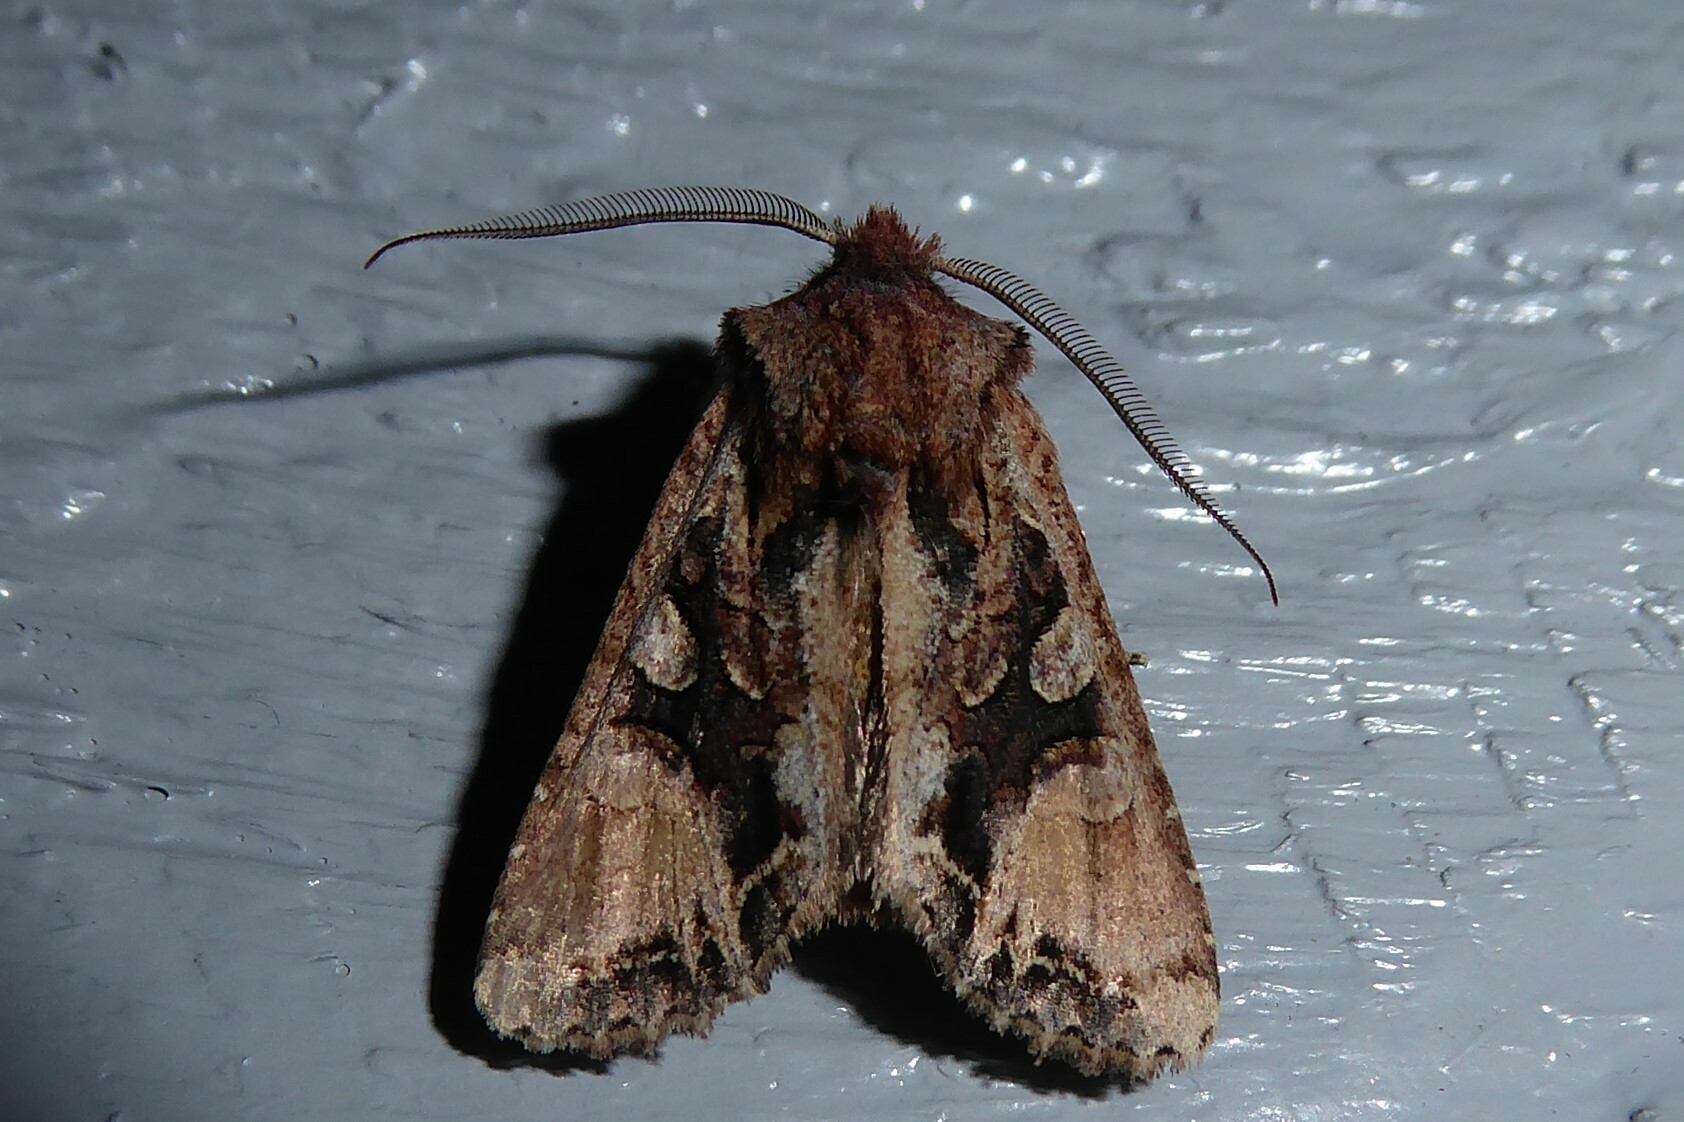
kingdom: Animalia
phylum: Arthropoda
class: Insecta
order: Lepidoptera
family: Noctuidae
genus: Ichneutica
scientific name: Ichneutica
